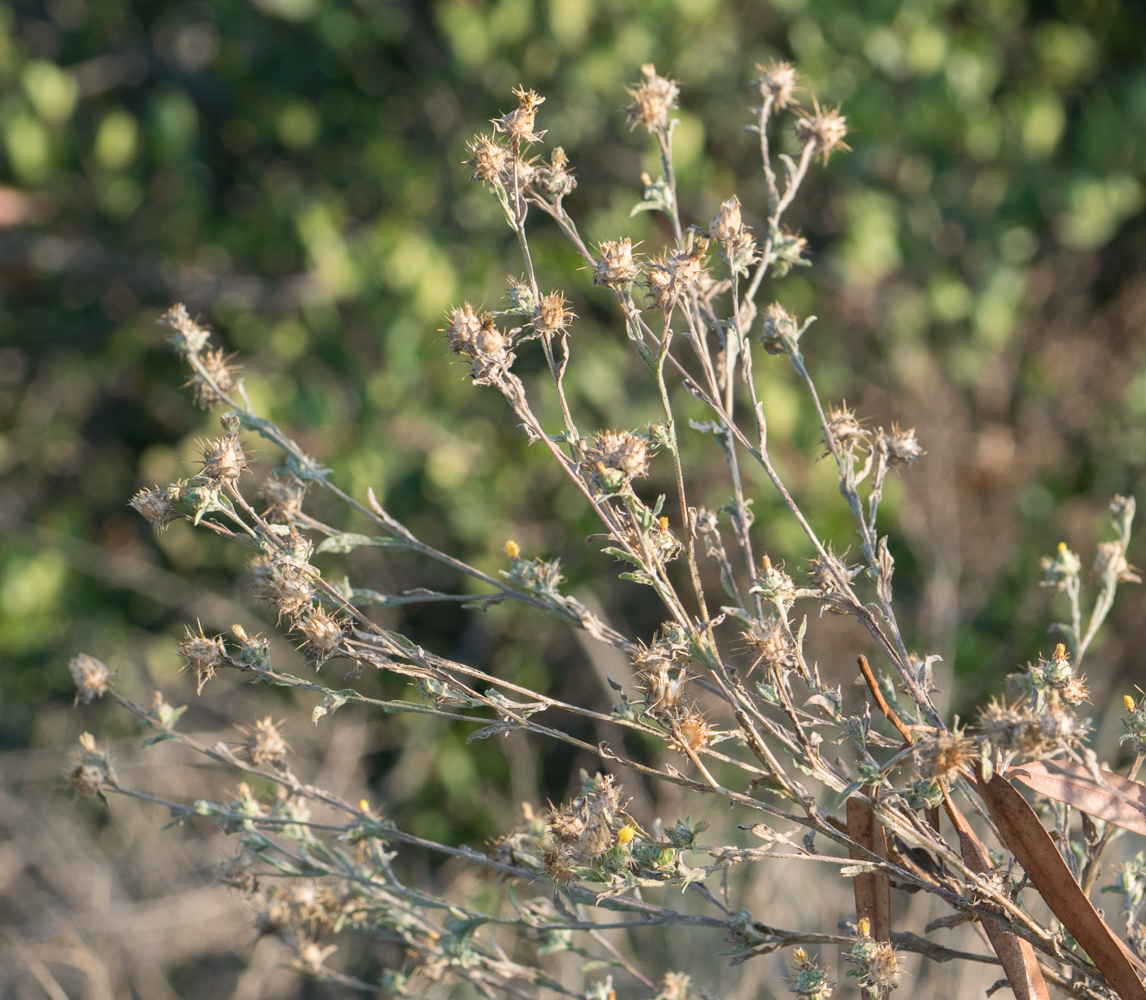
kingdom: Plantae
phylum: Tracheophyta
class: Magnoliopsida
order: Asterales
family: Asteraceae
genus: Centaurea
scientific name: Centaurea melitensis
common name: Maltese star-thistle
